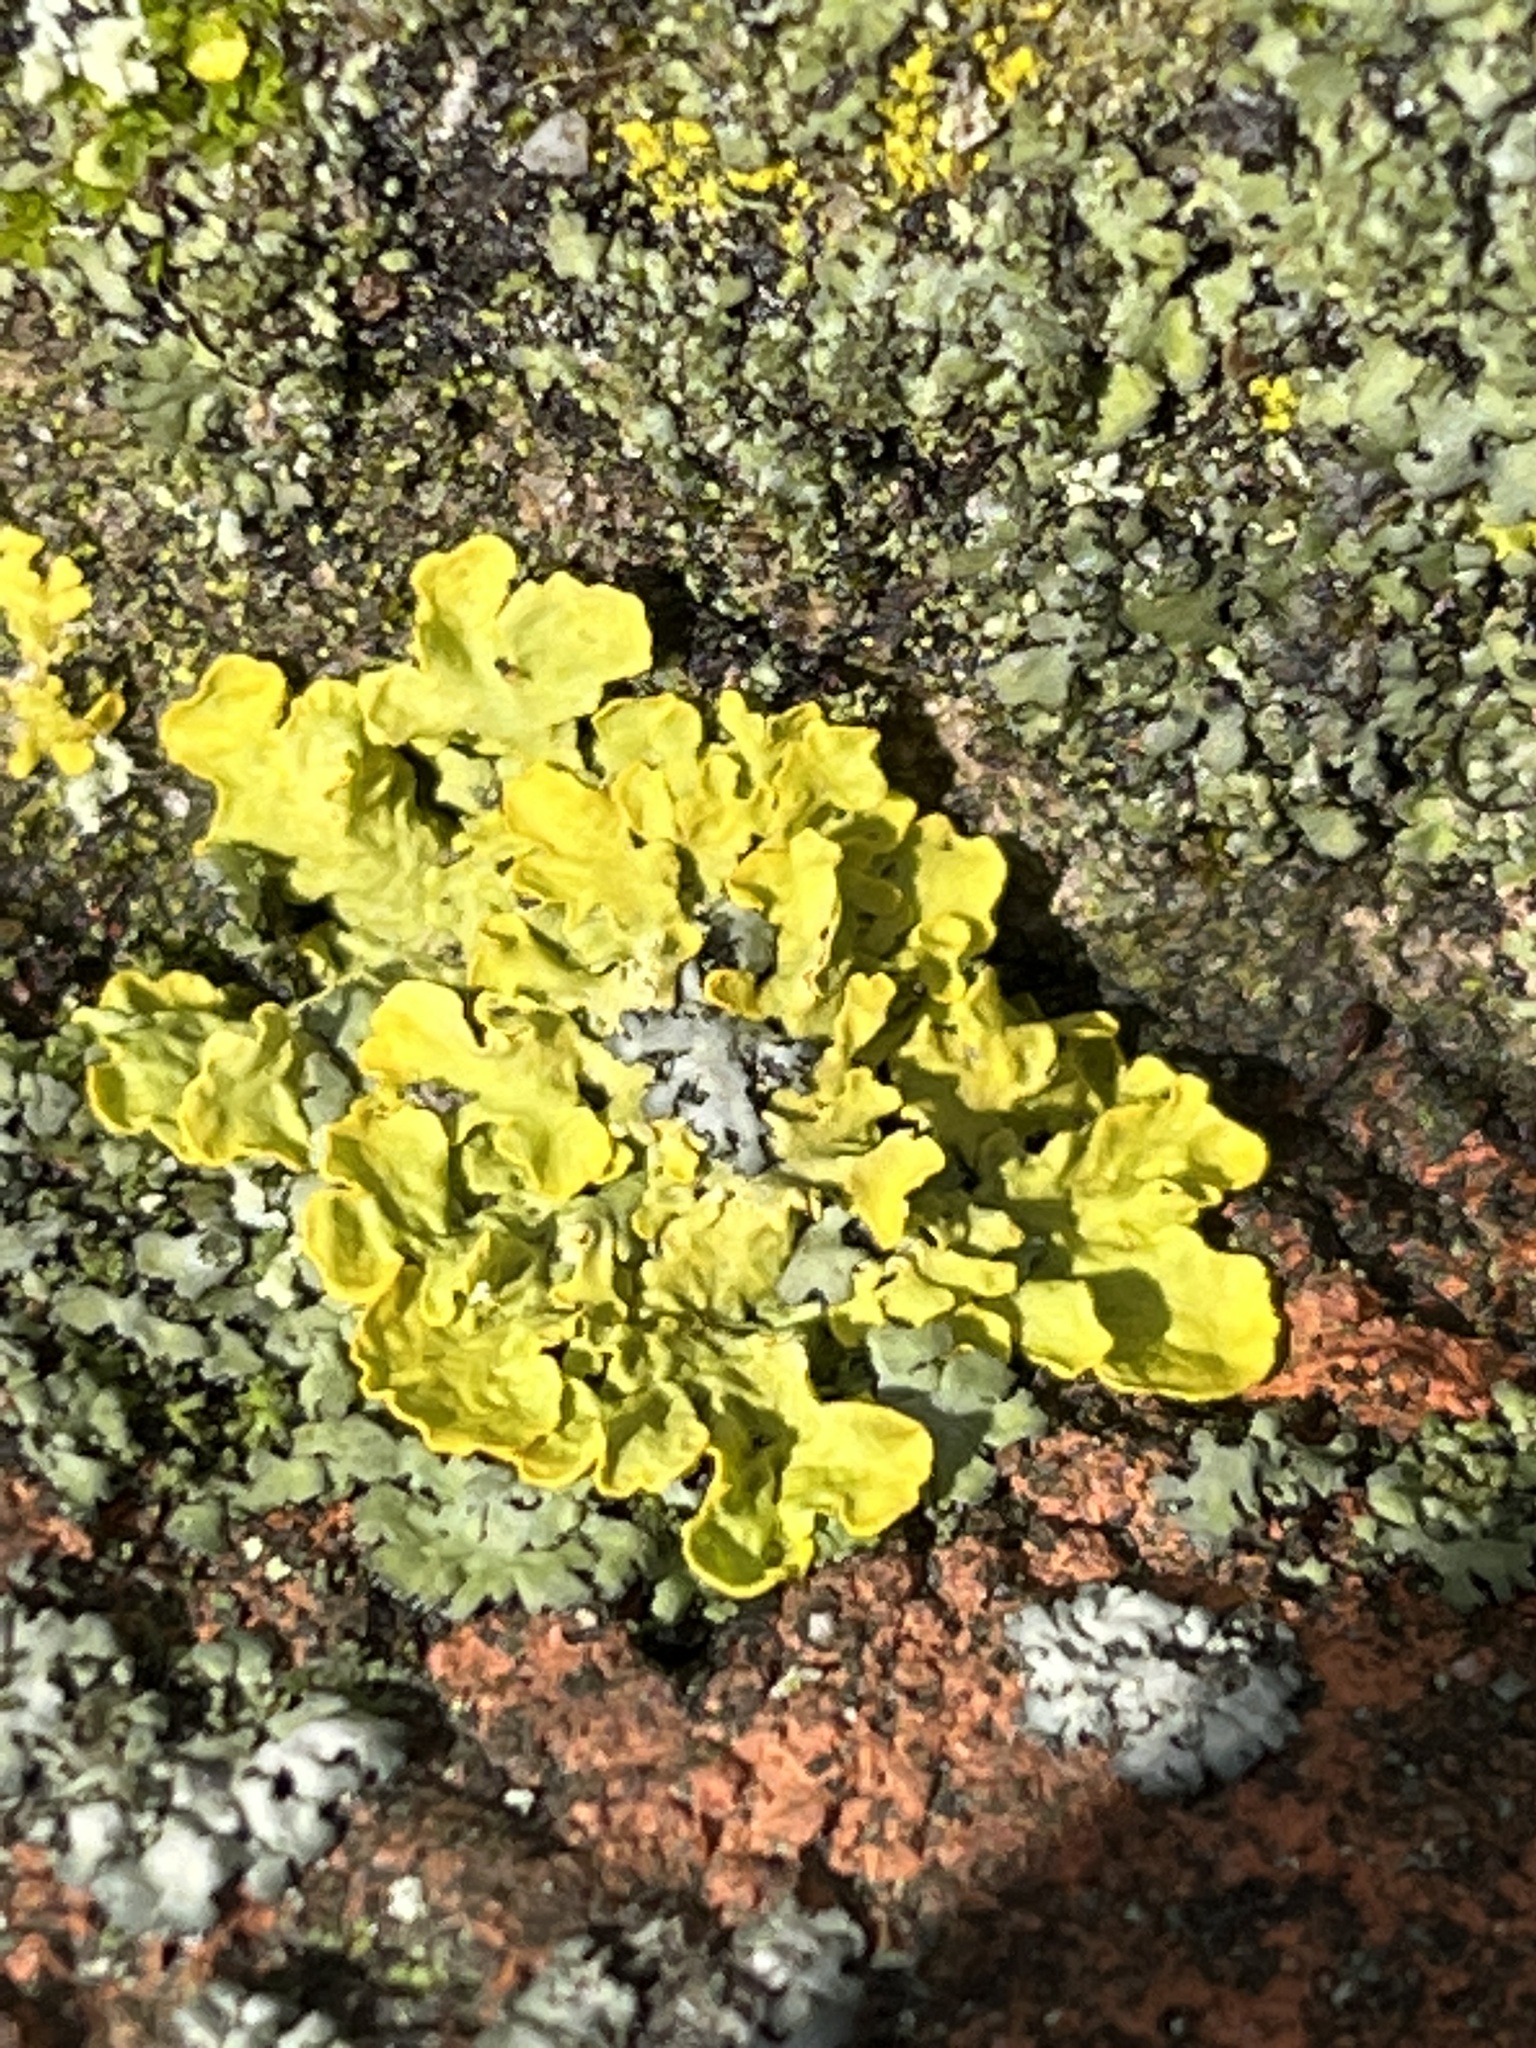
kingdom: Fungi
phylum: Ascomycota
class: Lecanoromycetes
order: Teloschistales
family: Teloschistaceae
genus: Xanthoria
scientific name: Xanthoria parietina
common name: Common orange lichen
